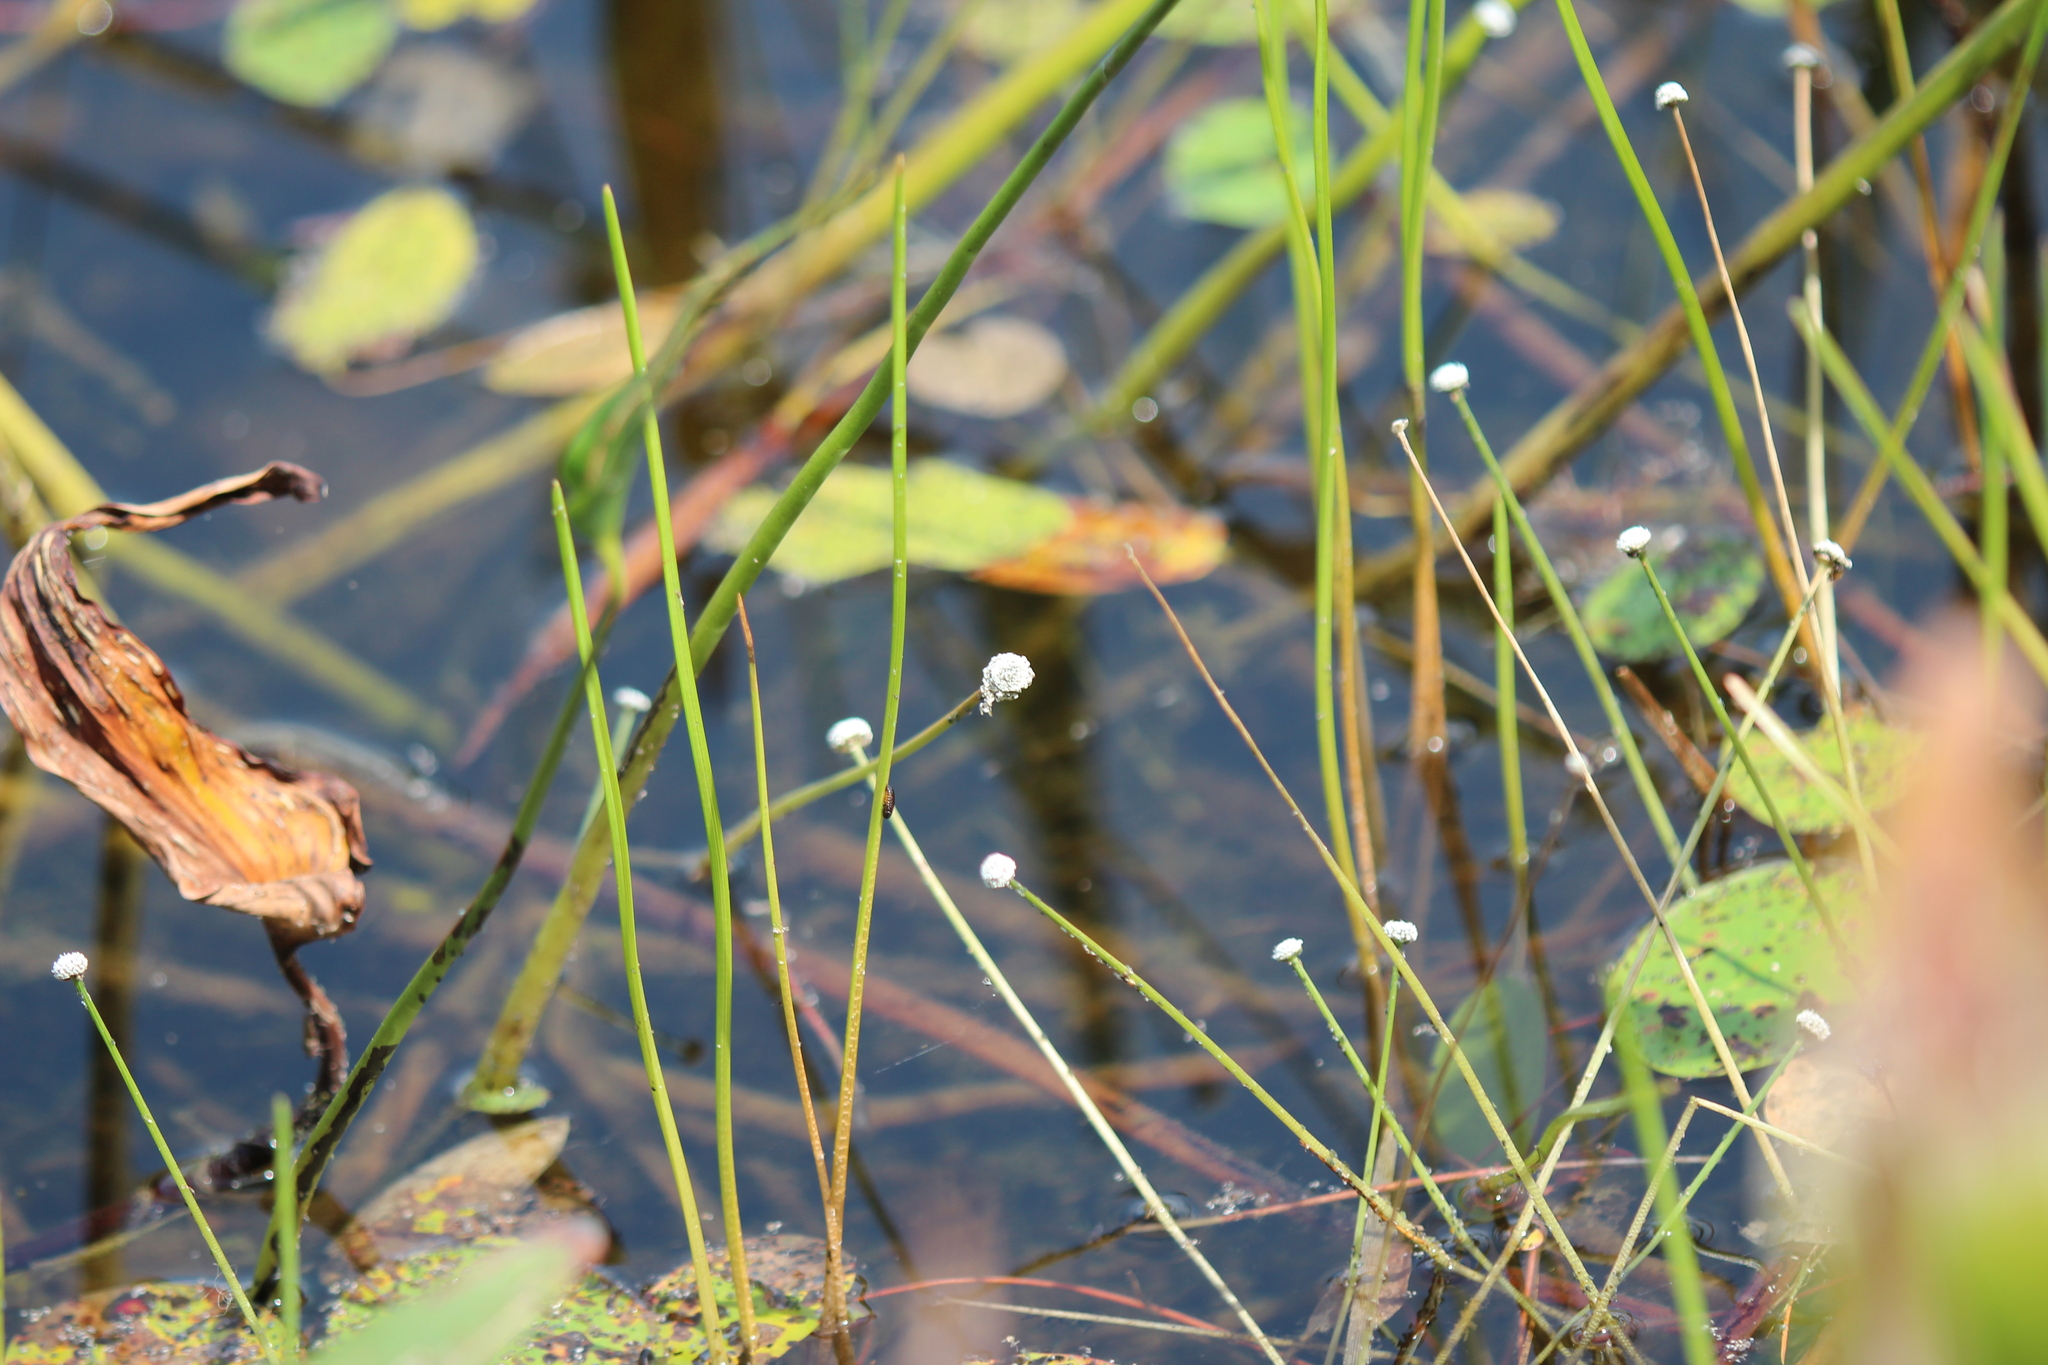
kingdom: Plantae
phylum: Tracheophyta
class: Liliopsida
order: Poales
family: Eriocaulaceae
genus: Eriocaulon
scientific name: Eriocaulon aquaticum
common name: Pipewort
